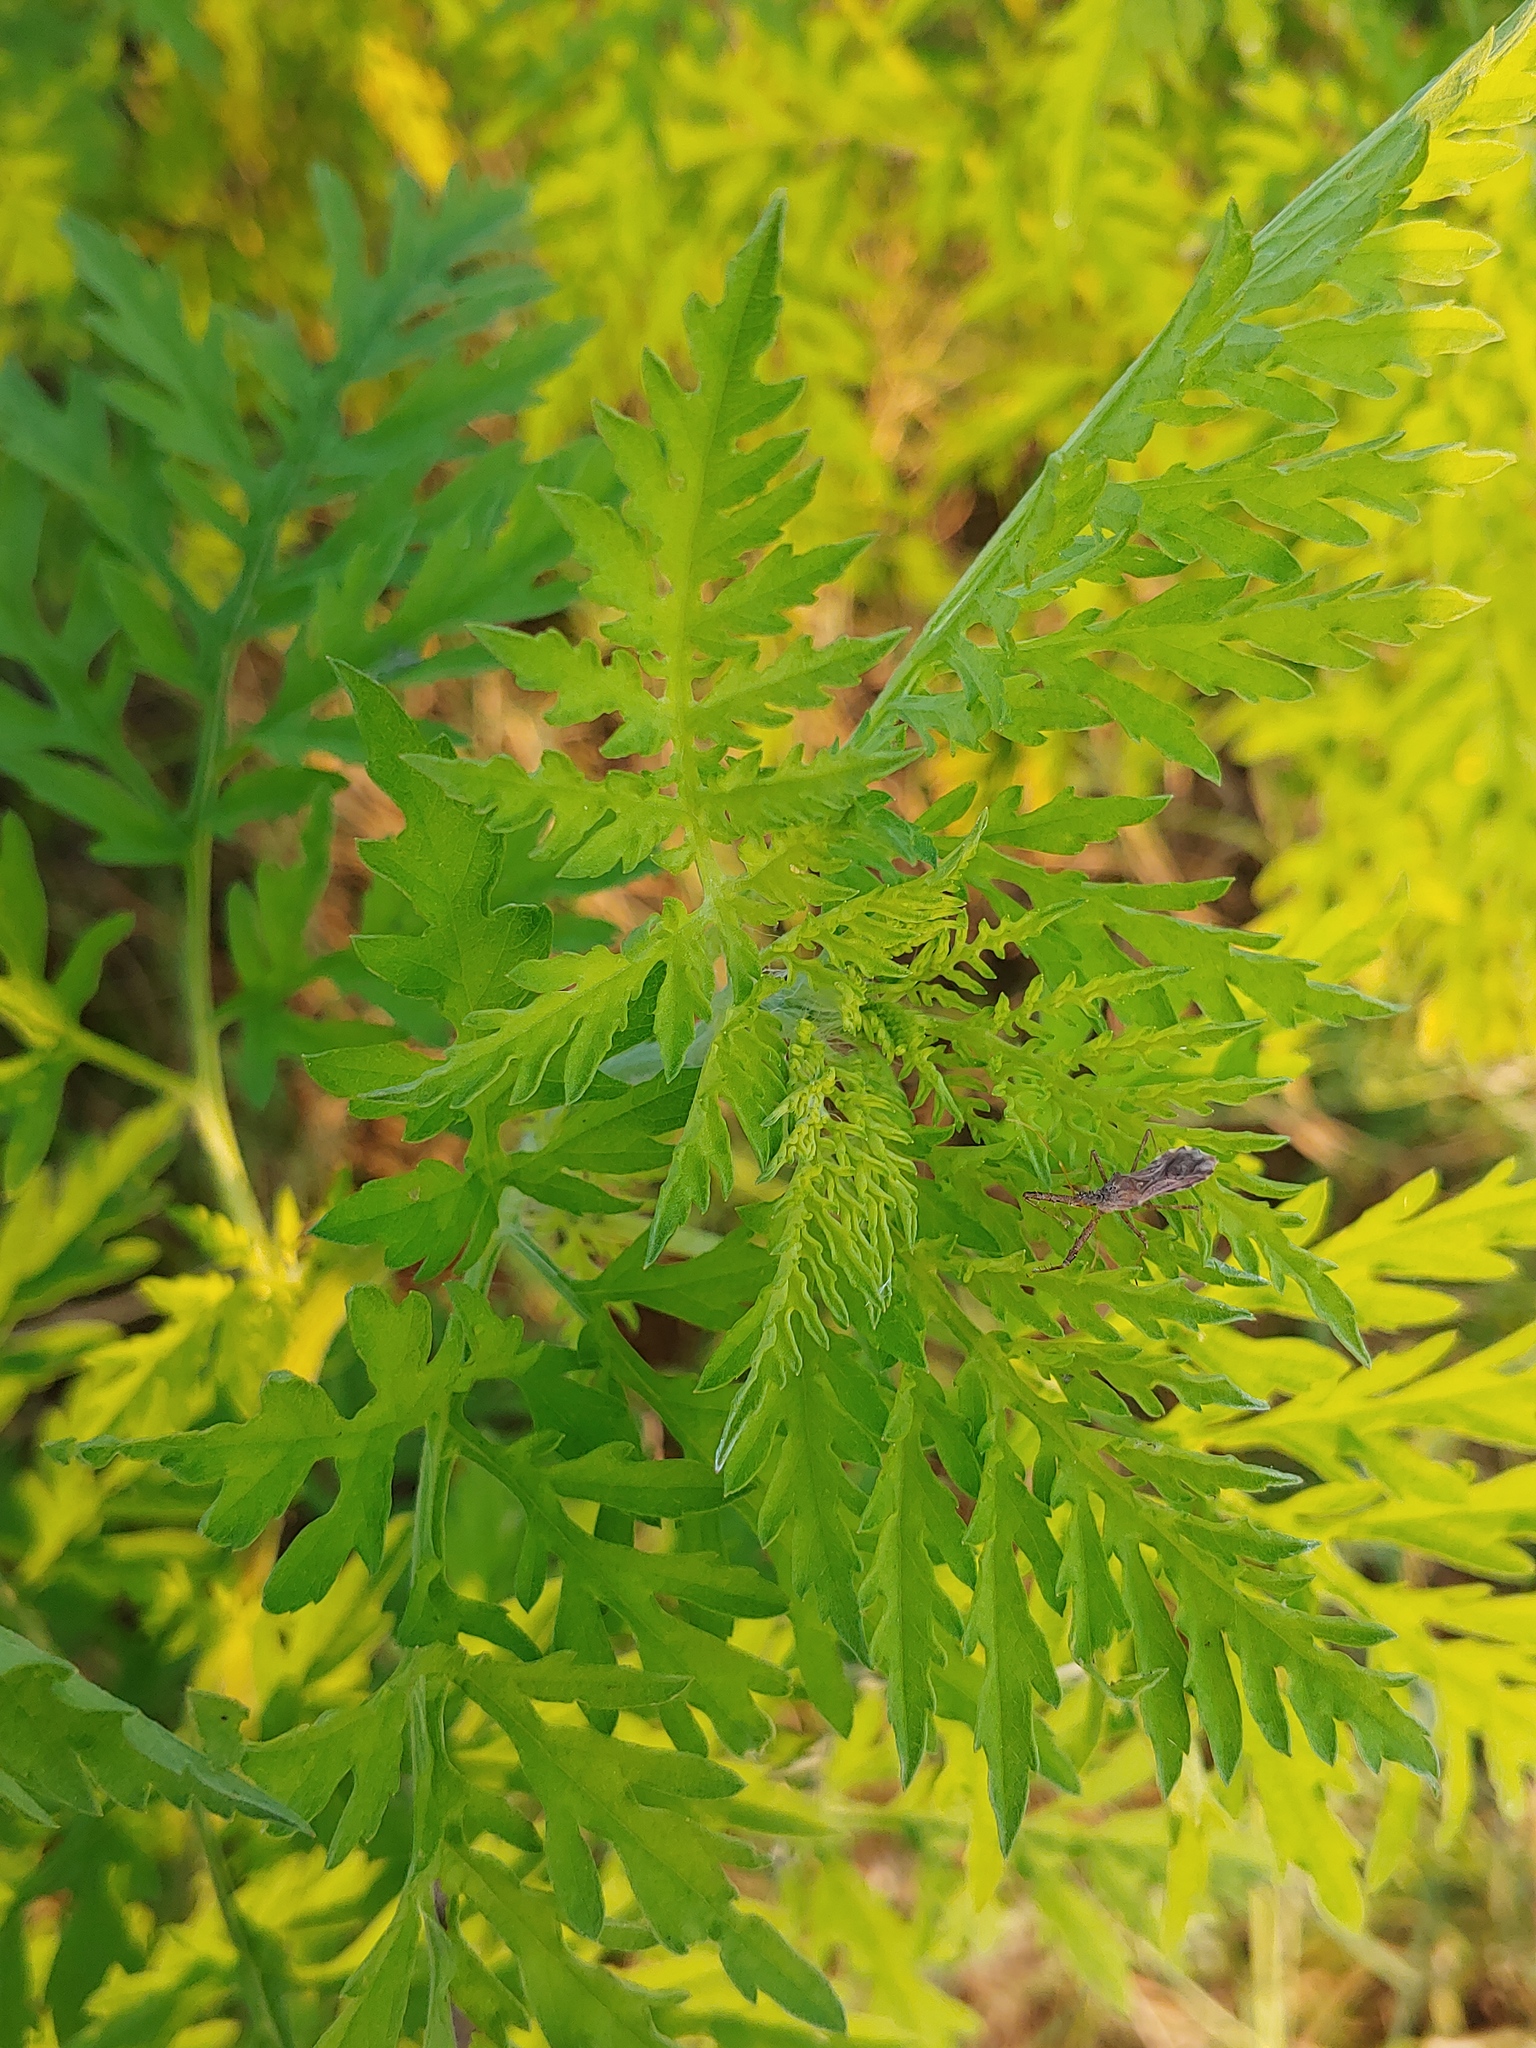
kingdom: Plantae
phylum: Tracheophyta
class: Magnoliopsida
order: Asterales
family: Asteraceae
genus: Ambrosia
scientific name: Ambrosia artemisiifolia
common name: Annual ragweed
